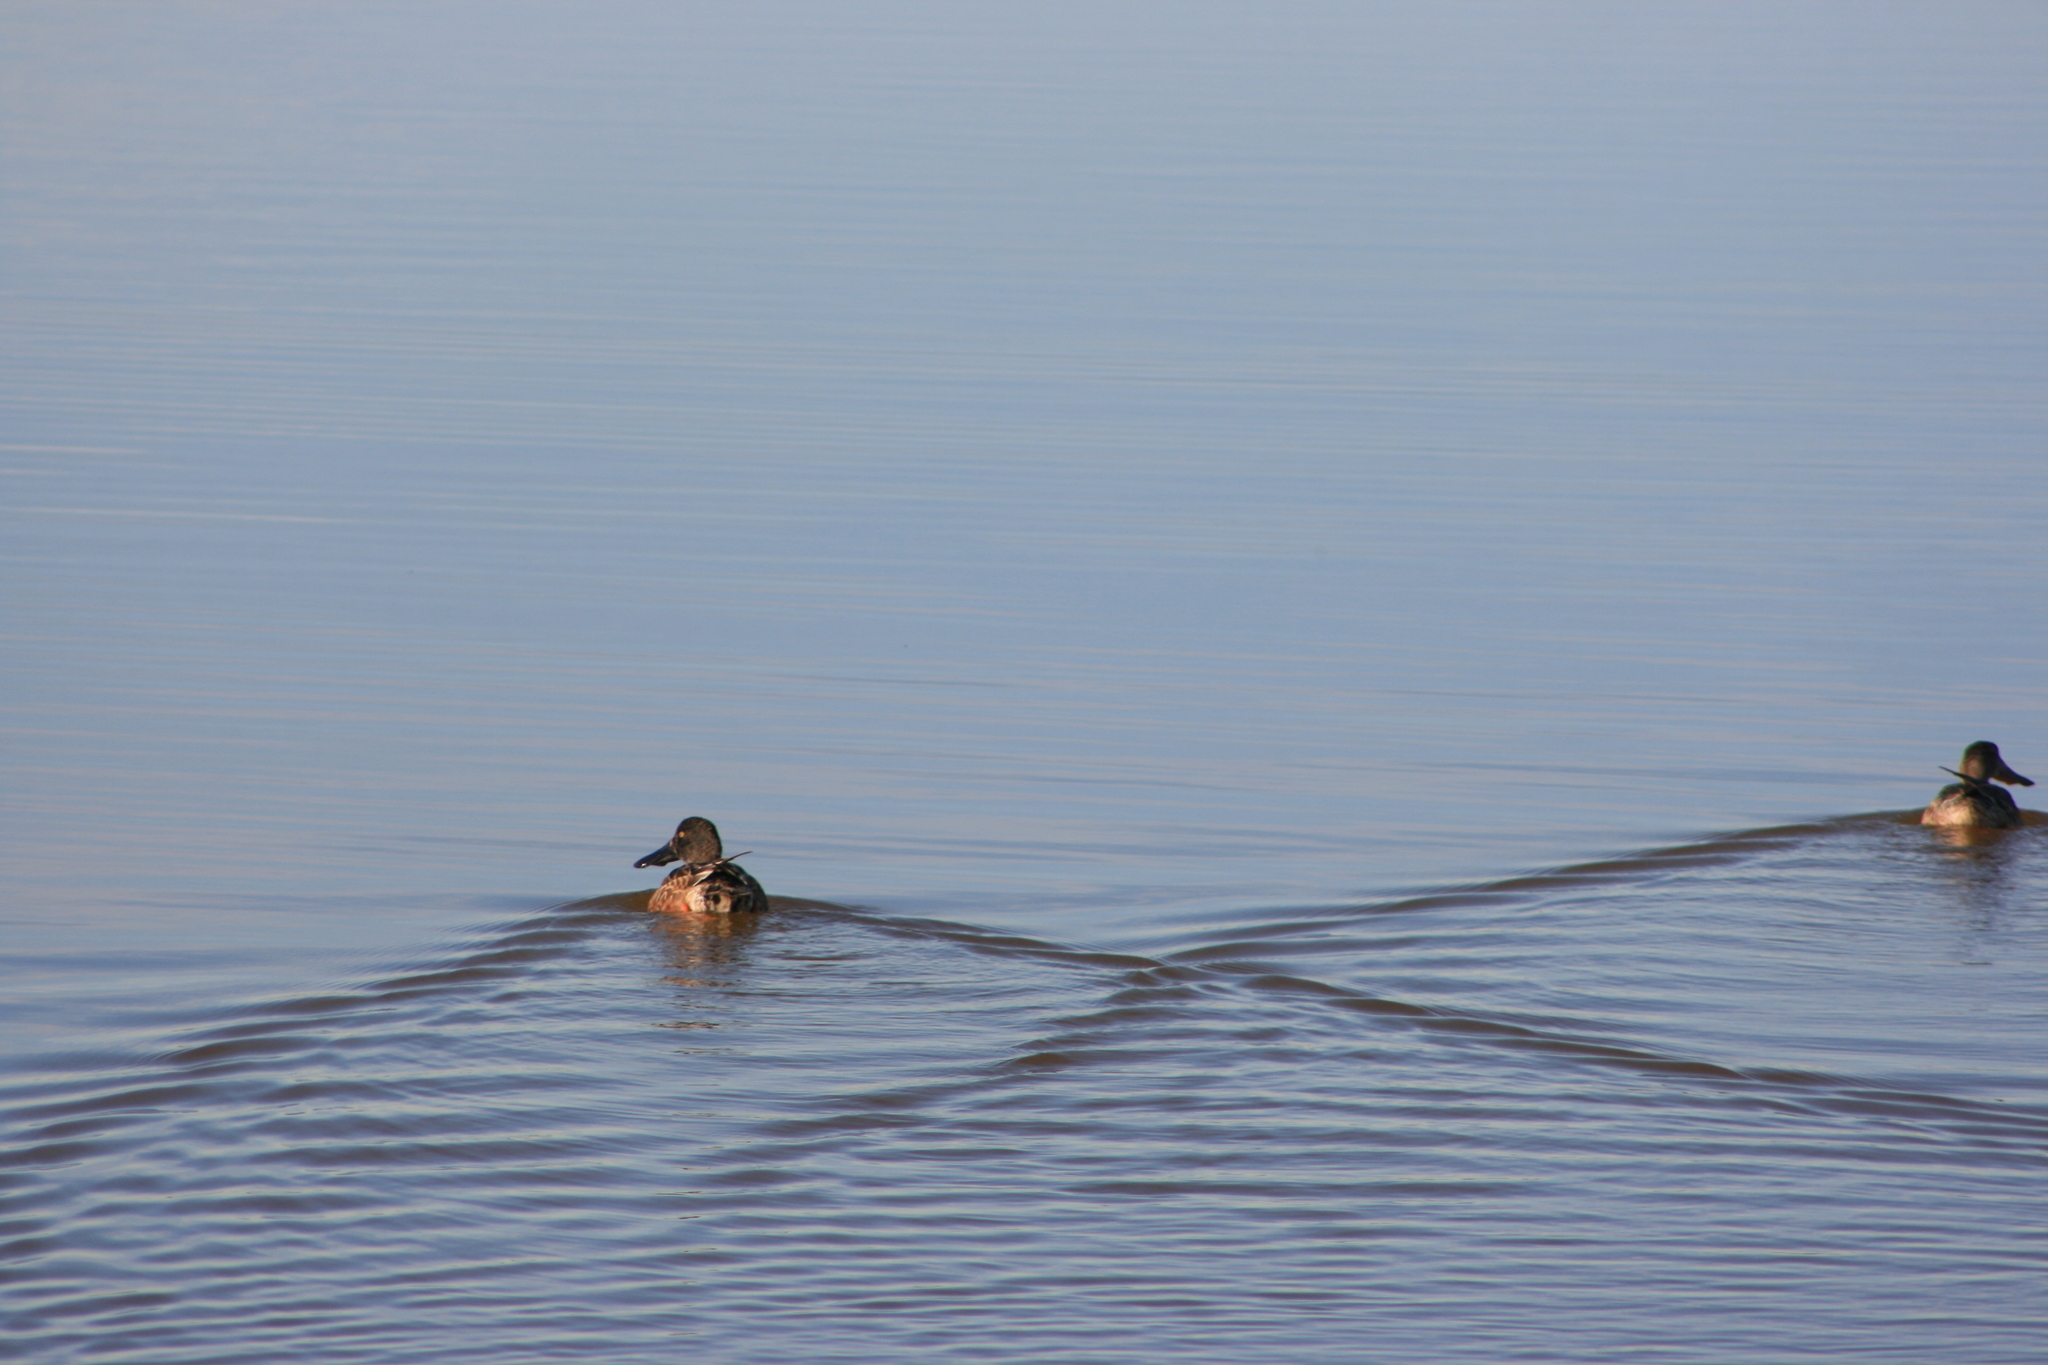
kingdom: Animalia
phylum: Chordata
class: Aves
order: Anseriformes
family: Anatidae
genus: Spatula
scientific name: Spatula clypeata
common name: Northern shoveler
